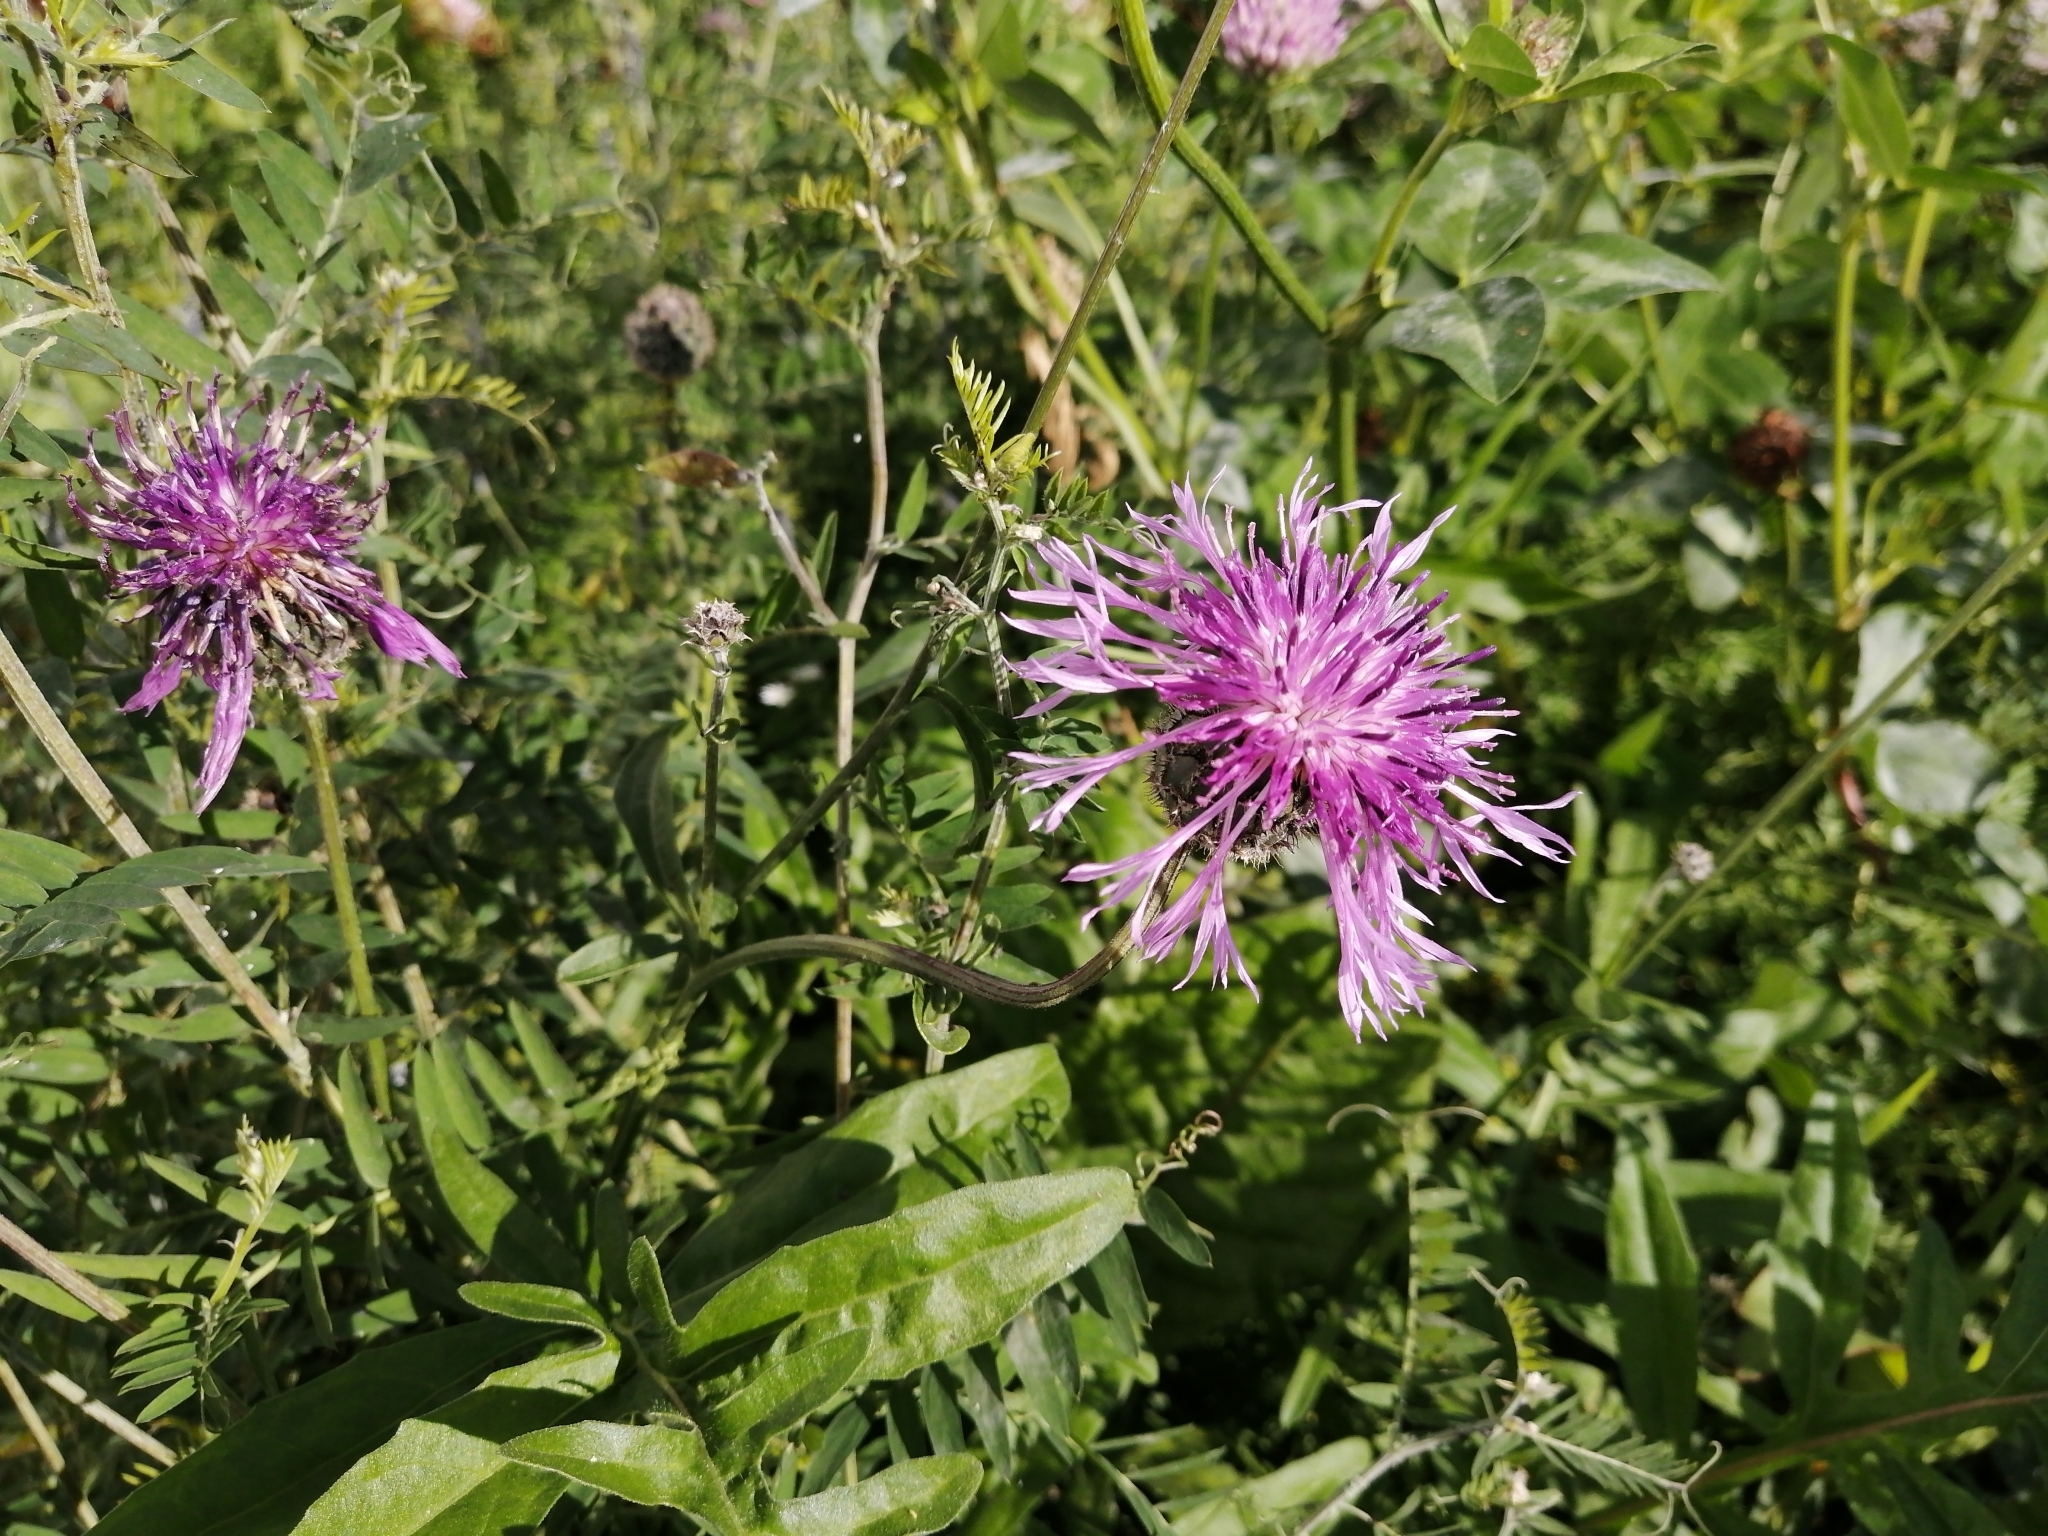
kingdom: Plantae
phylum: Tracheophyta
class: Magnoliopsida
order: Asterales
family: Asteraceae
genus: Centaurea
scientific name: Centaurea scabiosa
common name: Greater knapweed
